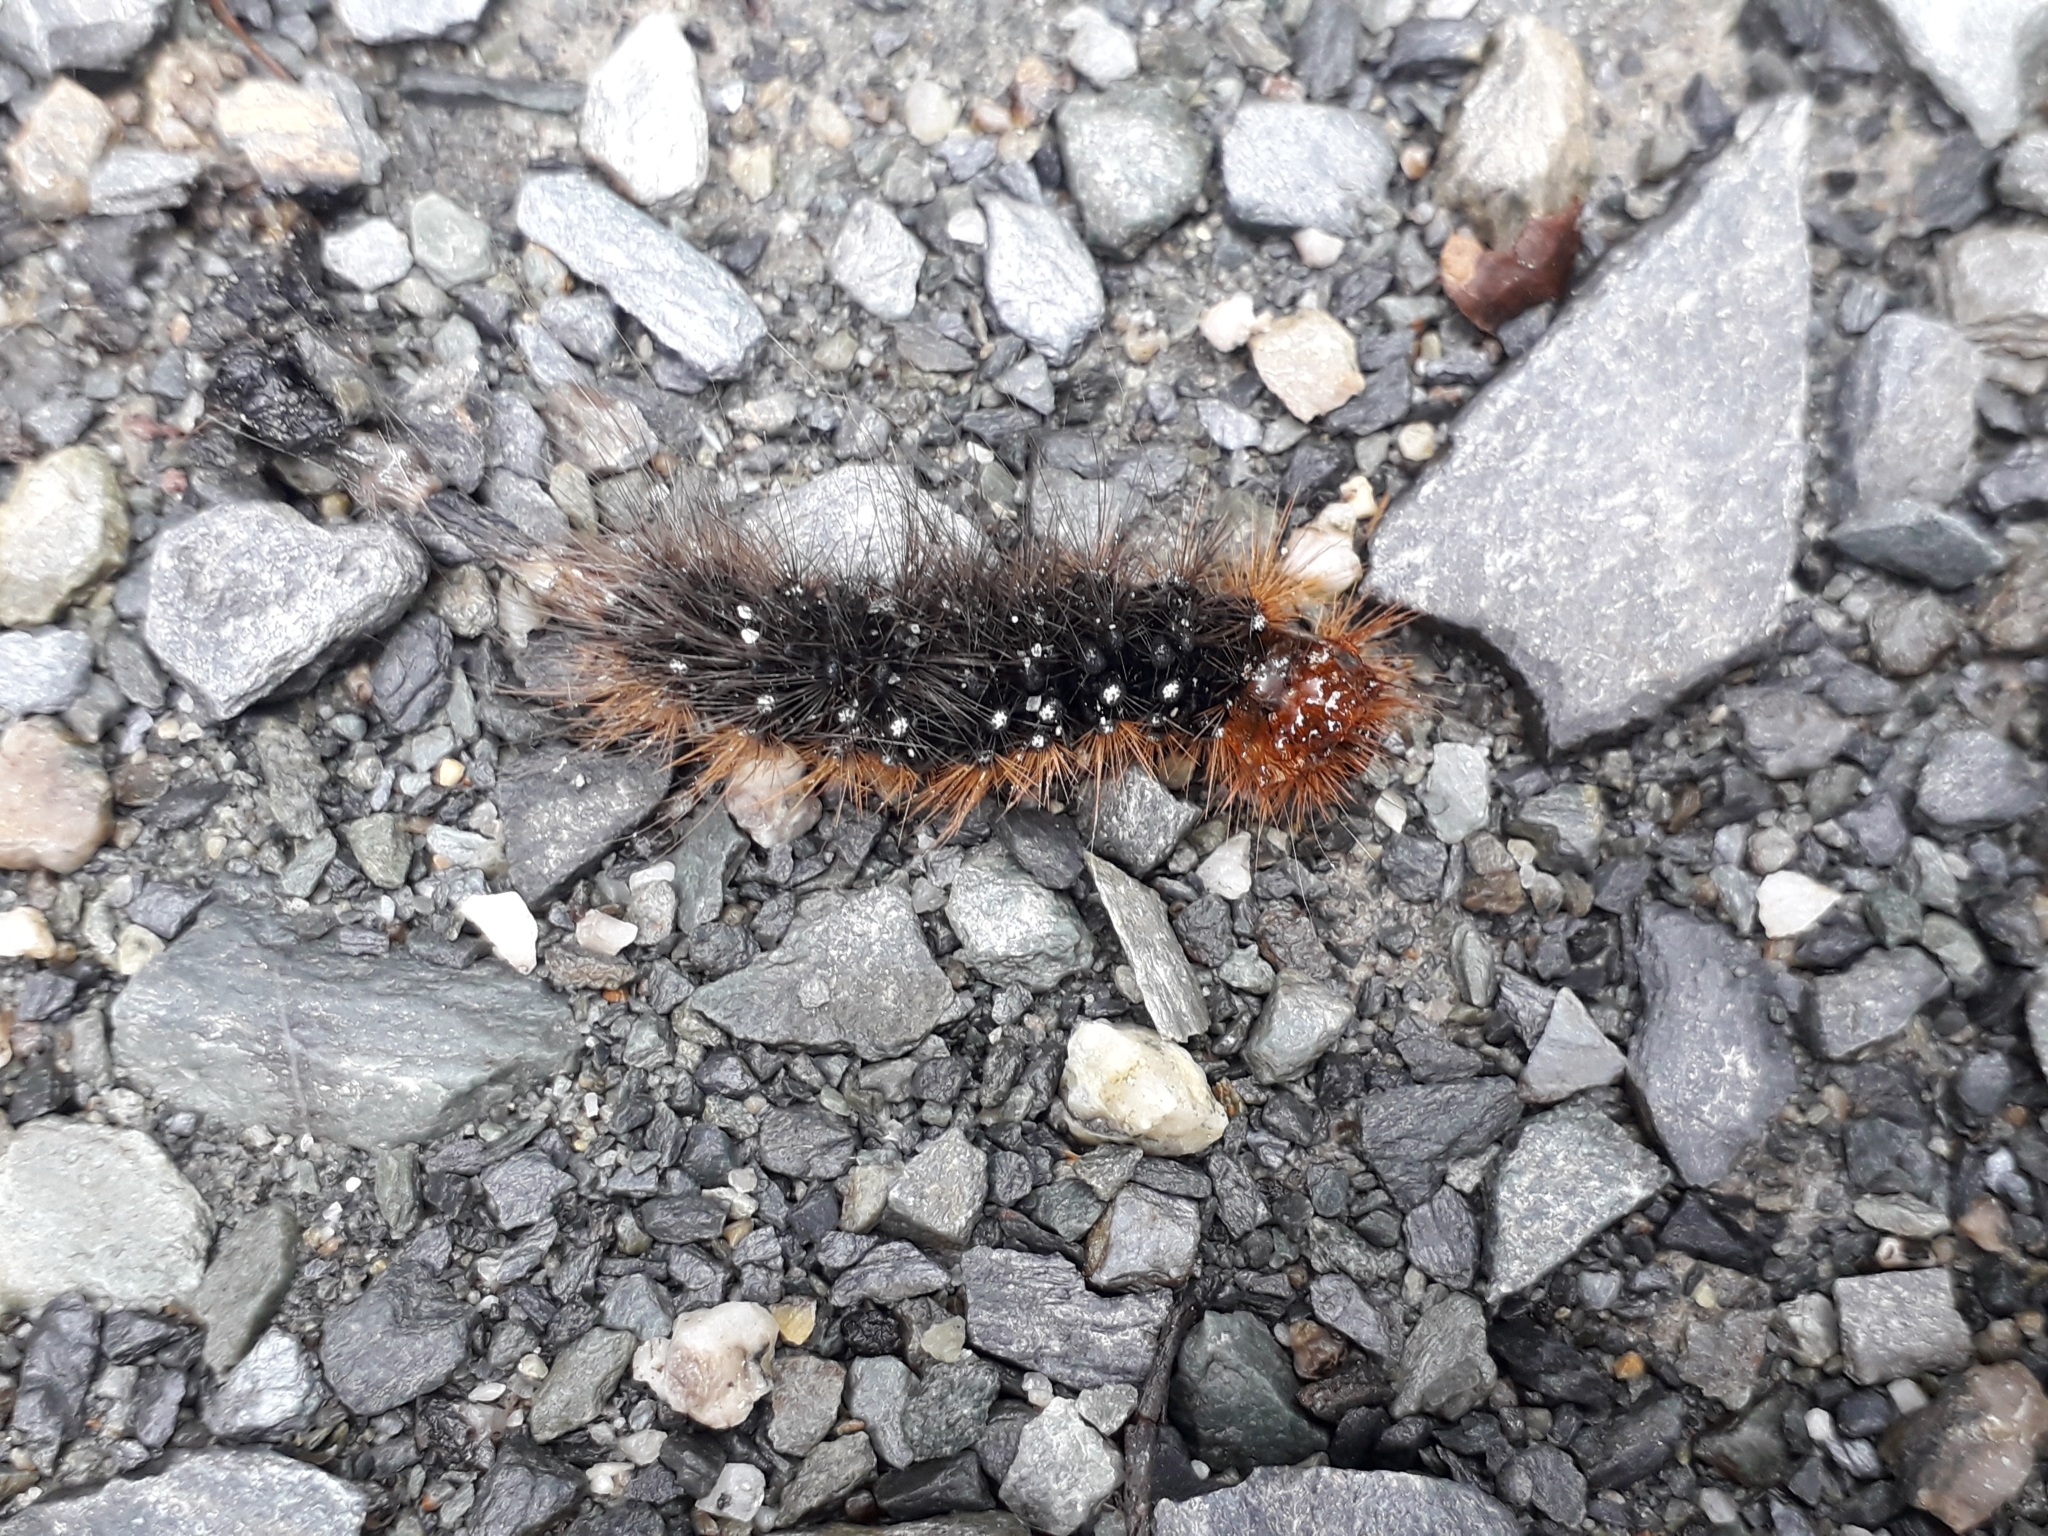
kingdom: Animalia
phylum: Arthropoda
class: Insecta
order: Lepidoptera
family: Erebidae
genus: Arctia
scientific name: Arctia caja
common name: Garden tiger
